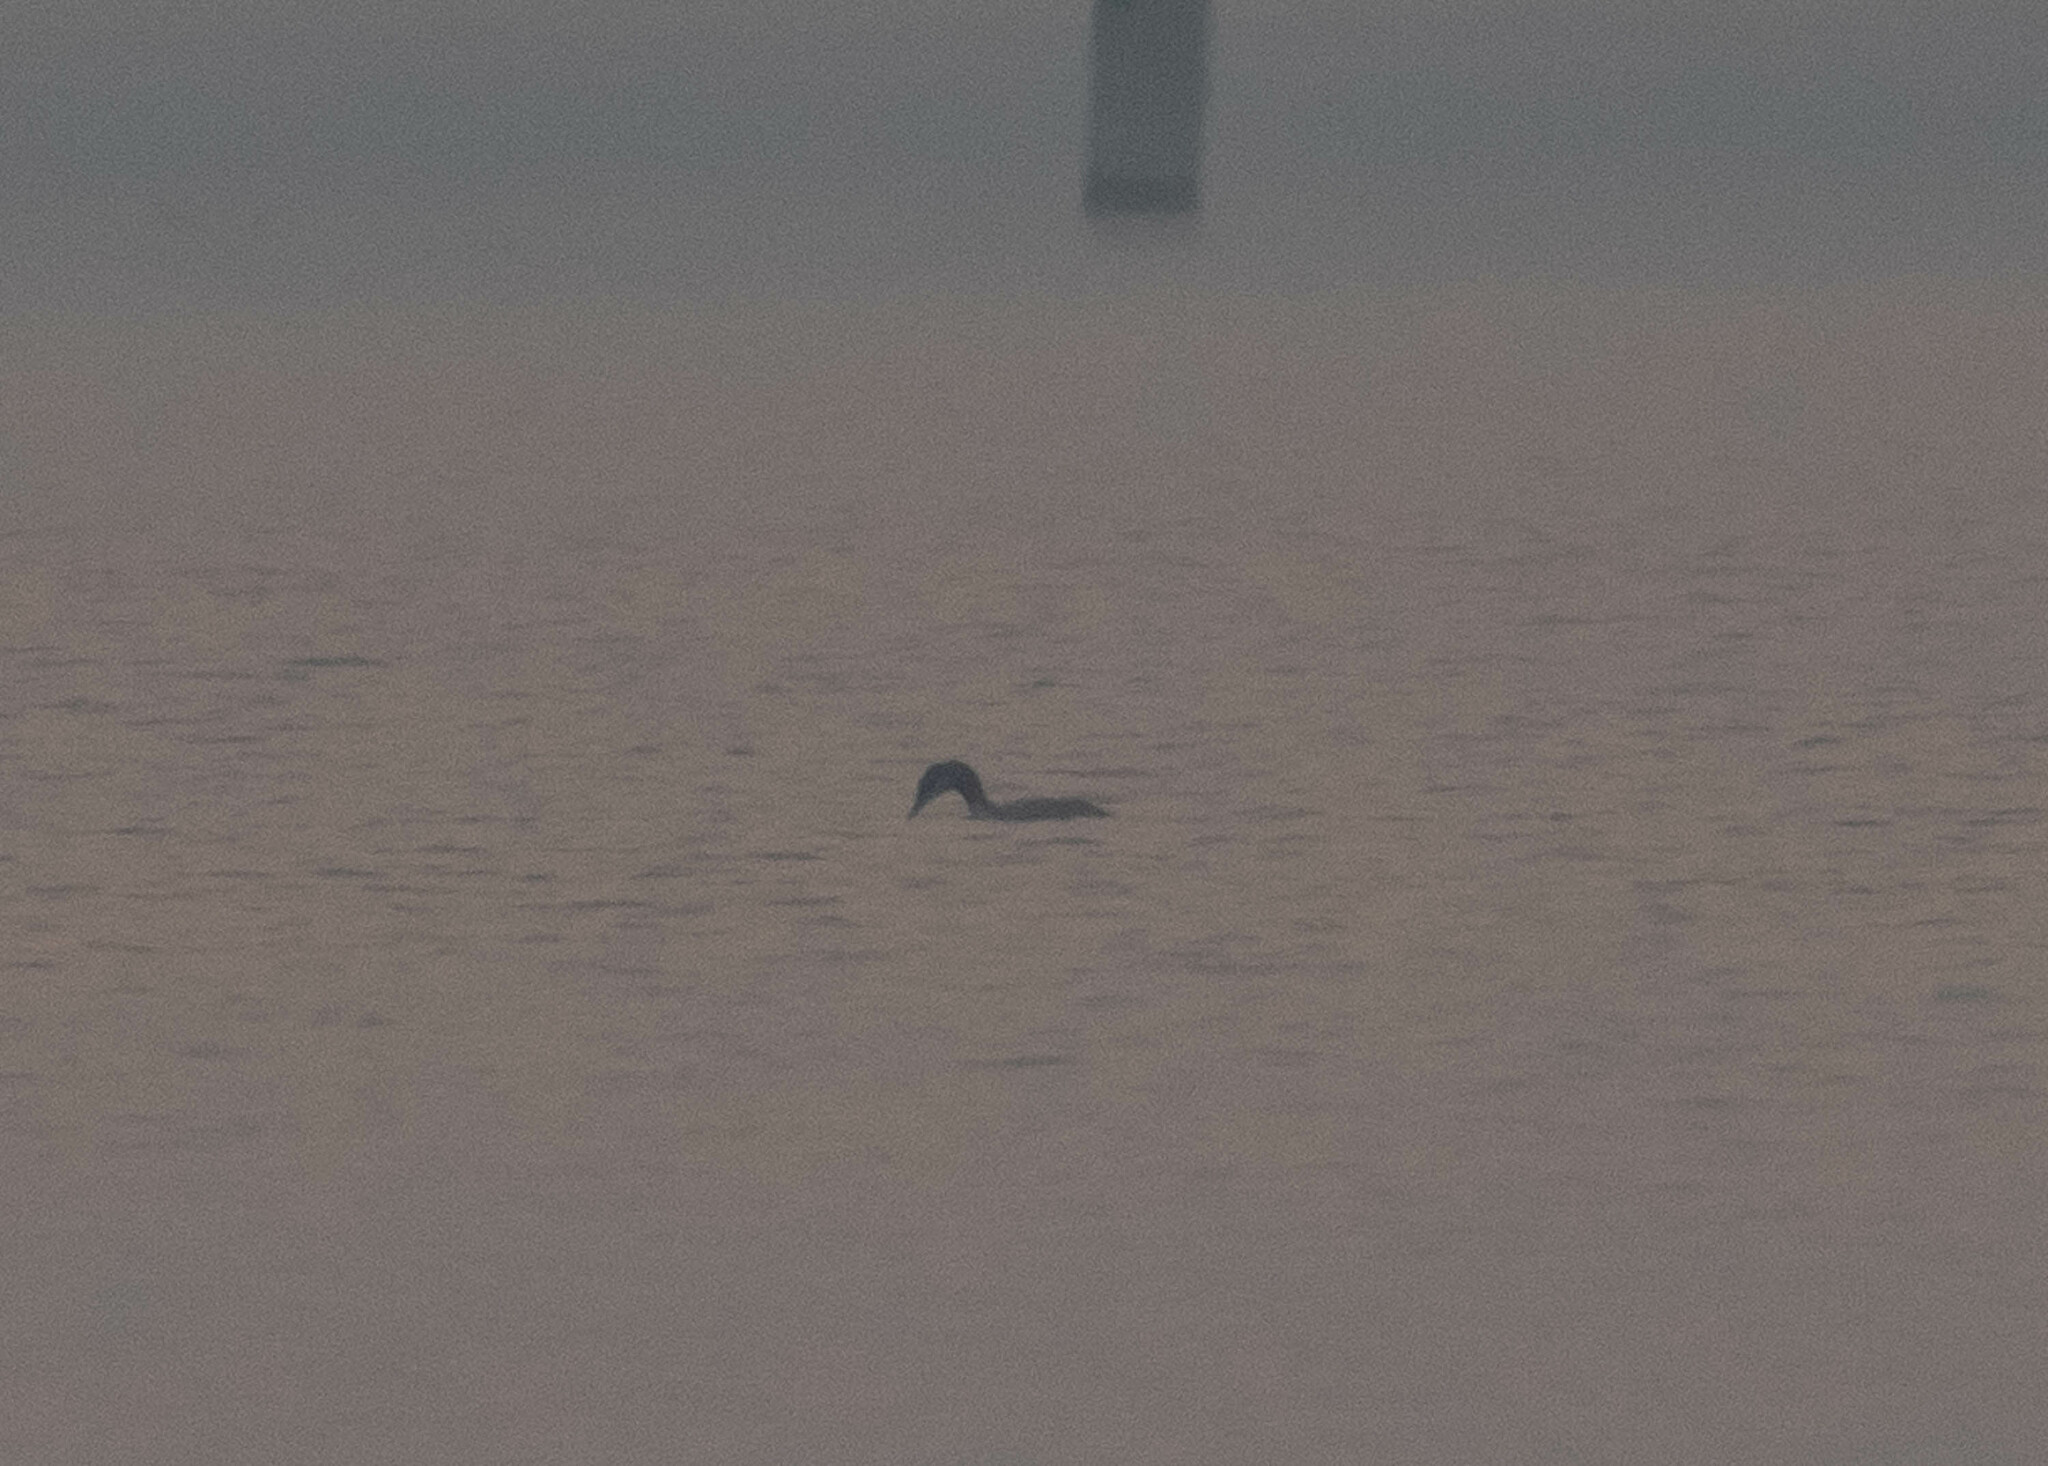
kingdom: Animalia
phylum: Chordata
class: Aves
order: Gaviiformes
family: Gaviidae
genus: Gavia
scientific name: Gavia stellata
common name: Red-throated loon
